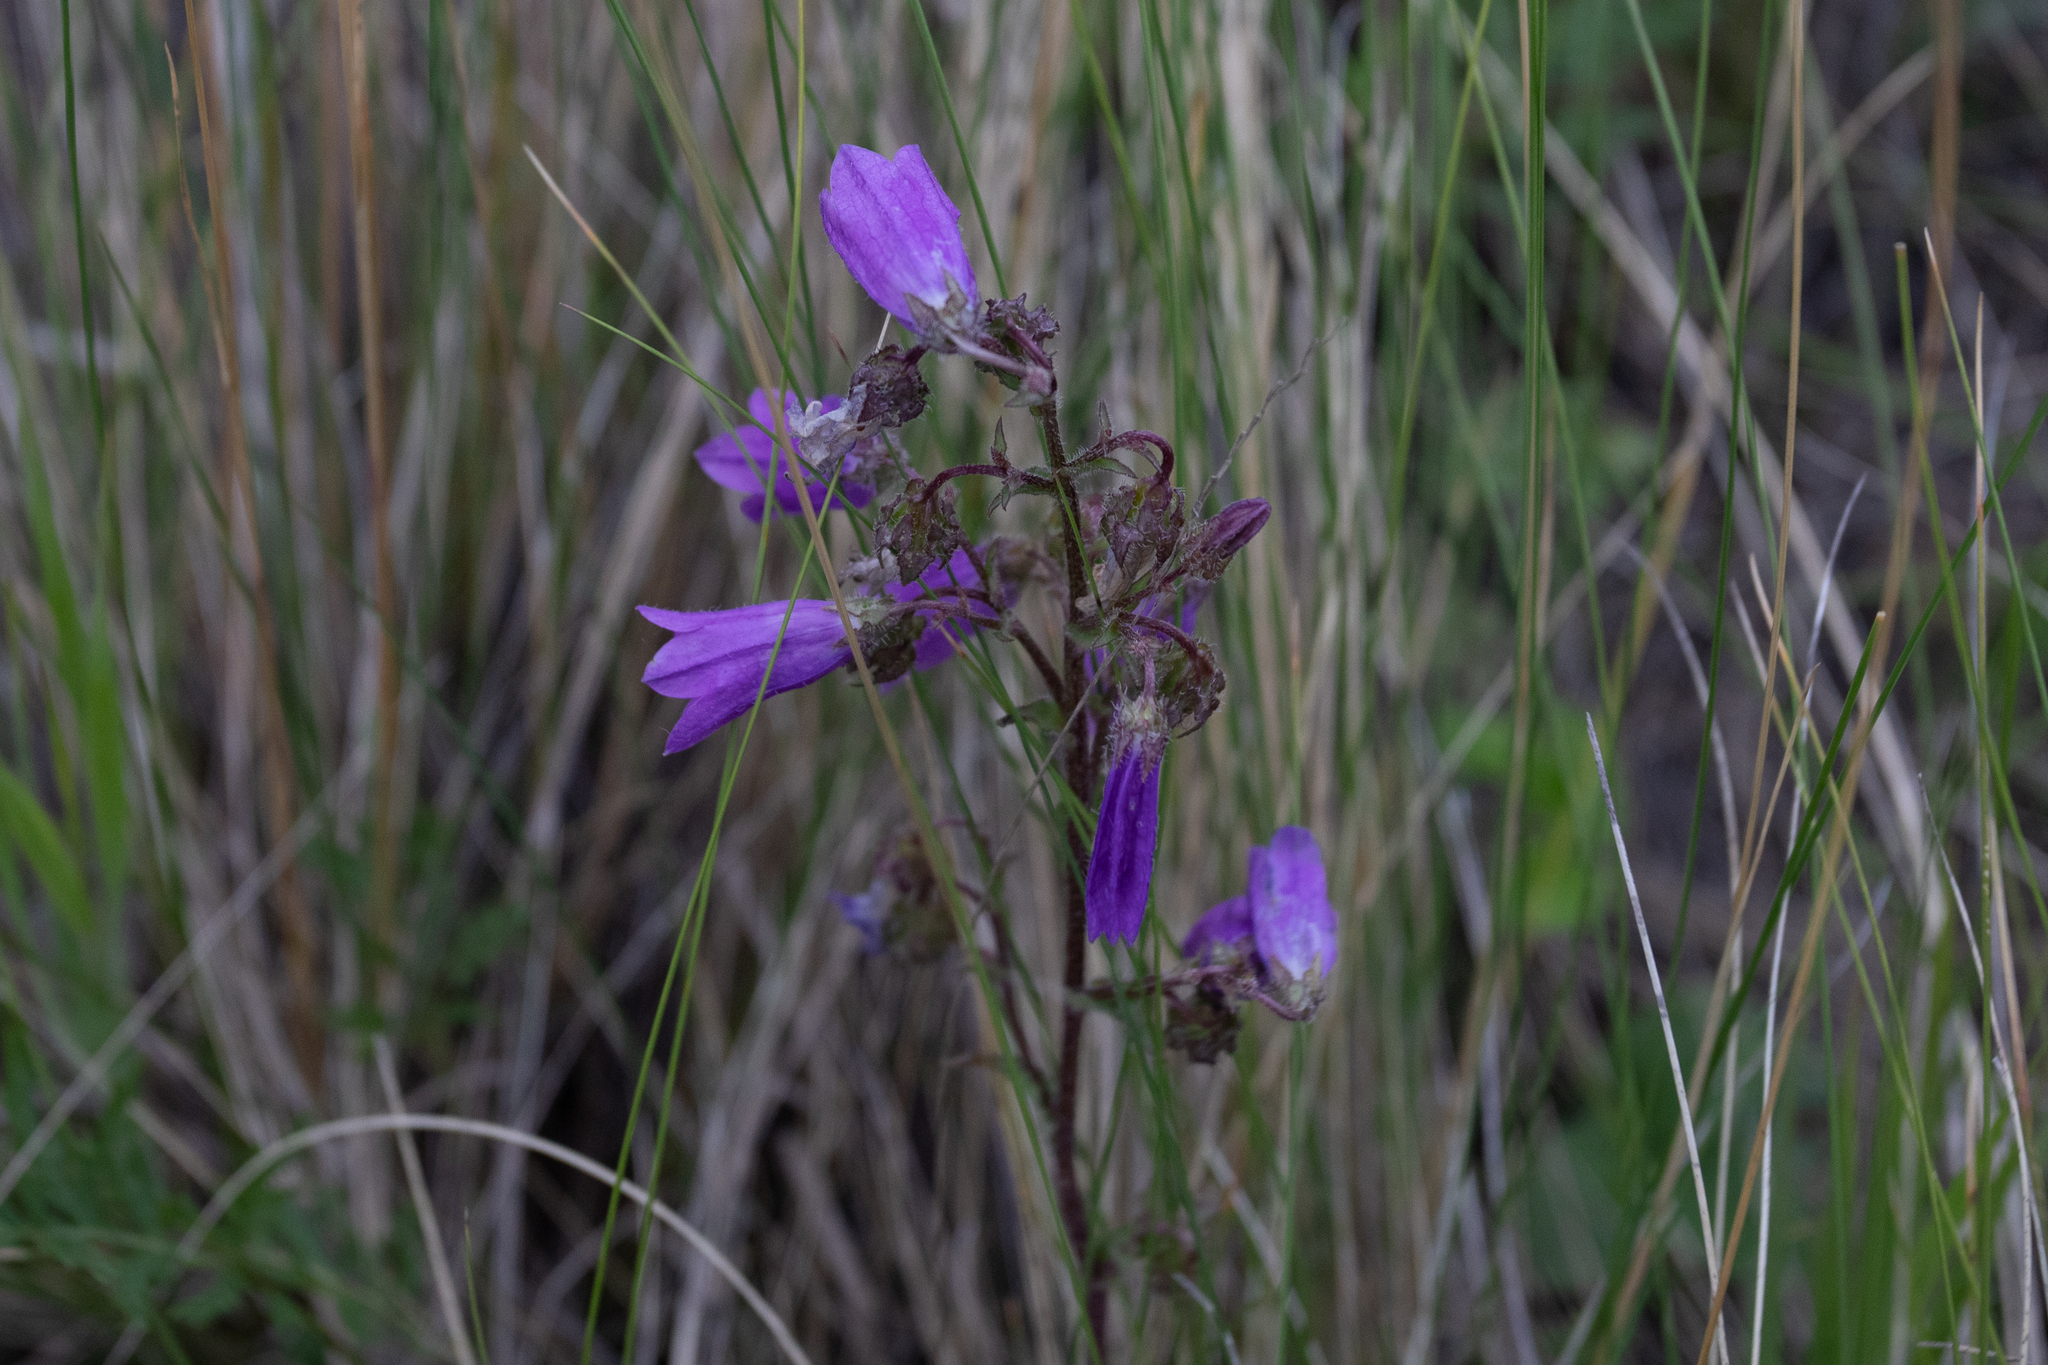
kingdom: Plantae
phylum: Tracheophyta
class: Magnoliopsida
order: Asterales
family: Campanulaceae
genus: Campanula
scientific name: Campanula sibirica
